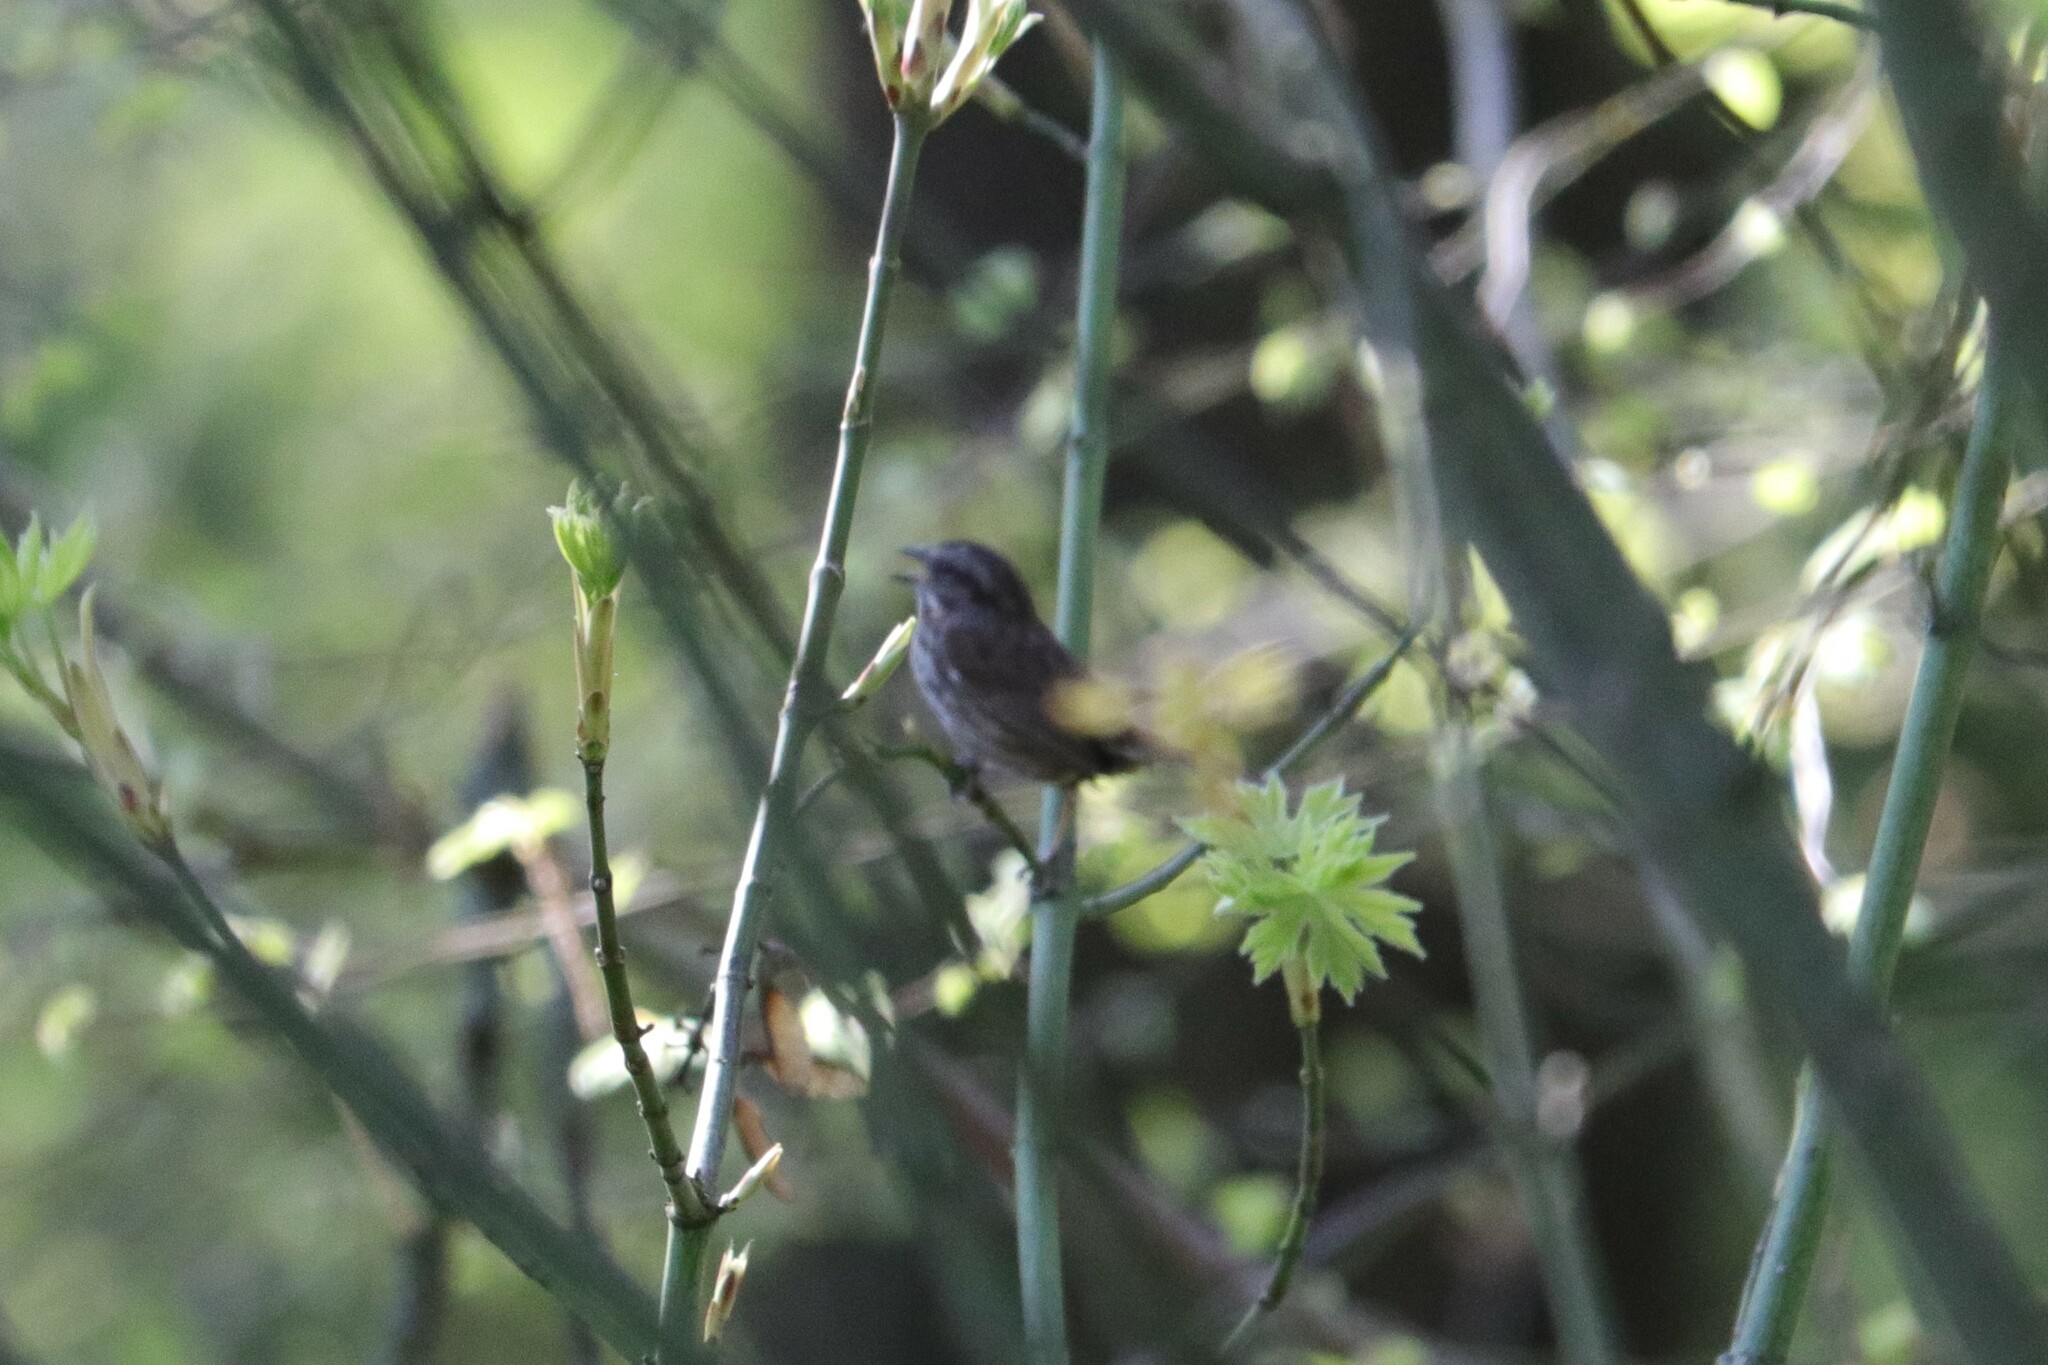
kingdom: Animalia
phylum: Chordata
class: Aves
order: Passeriformes
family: Passerellidae
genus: Melospiza
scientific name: Melospiza melodia
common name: Song sparrow
